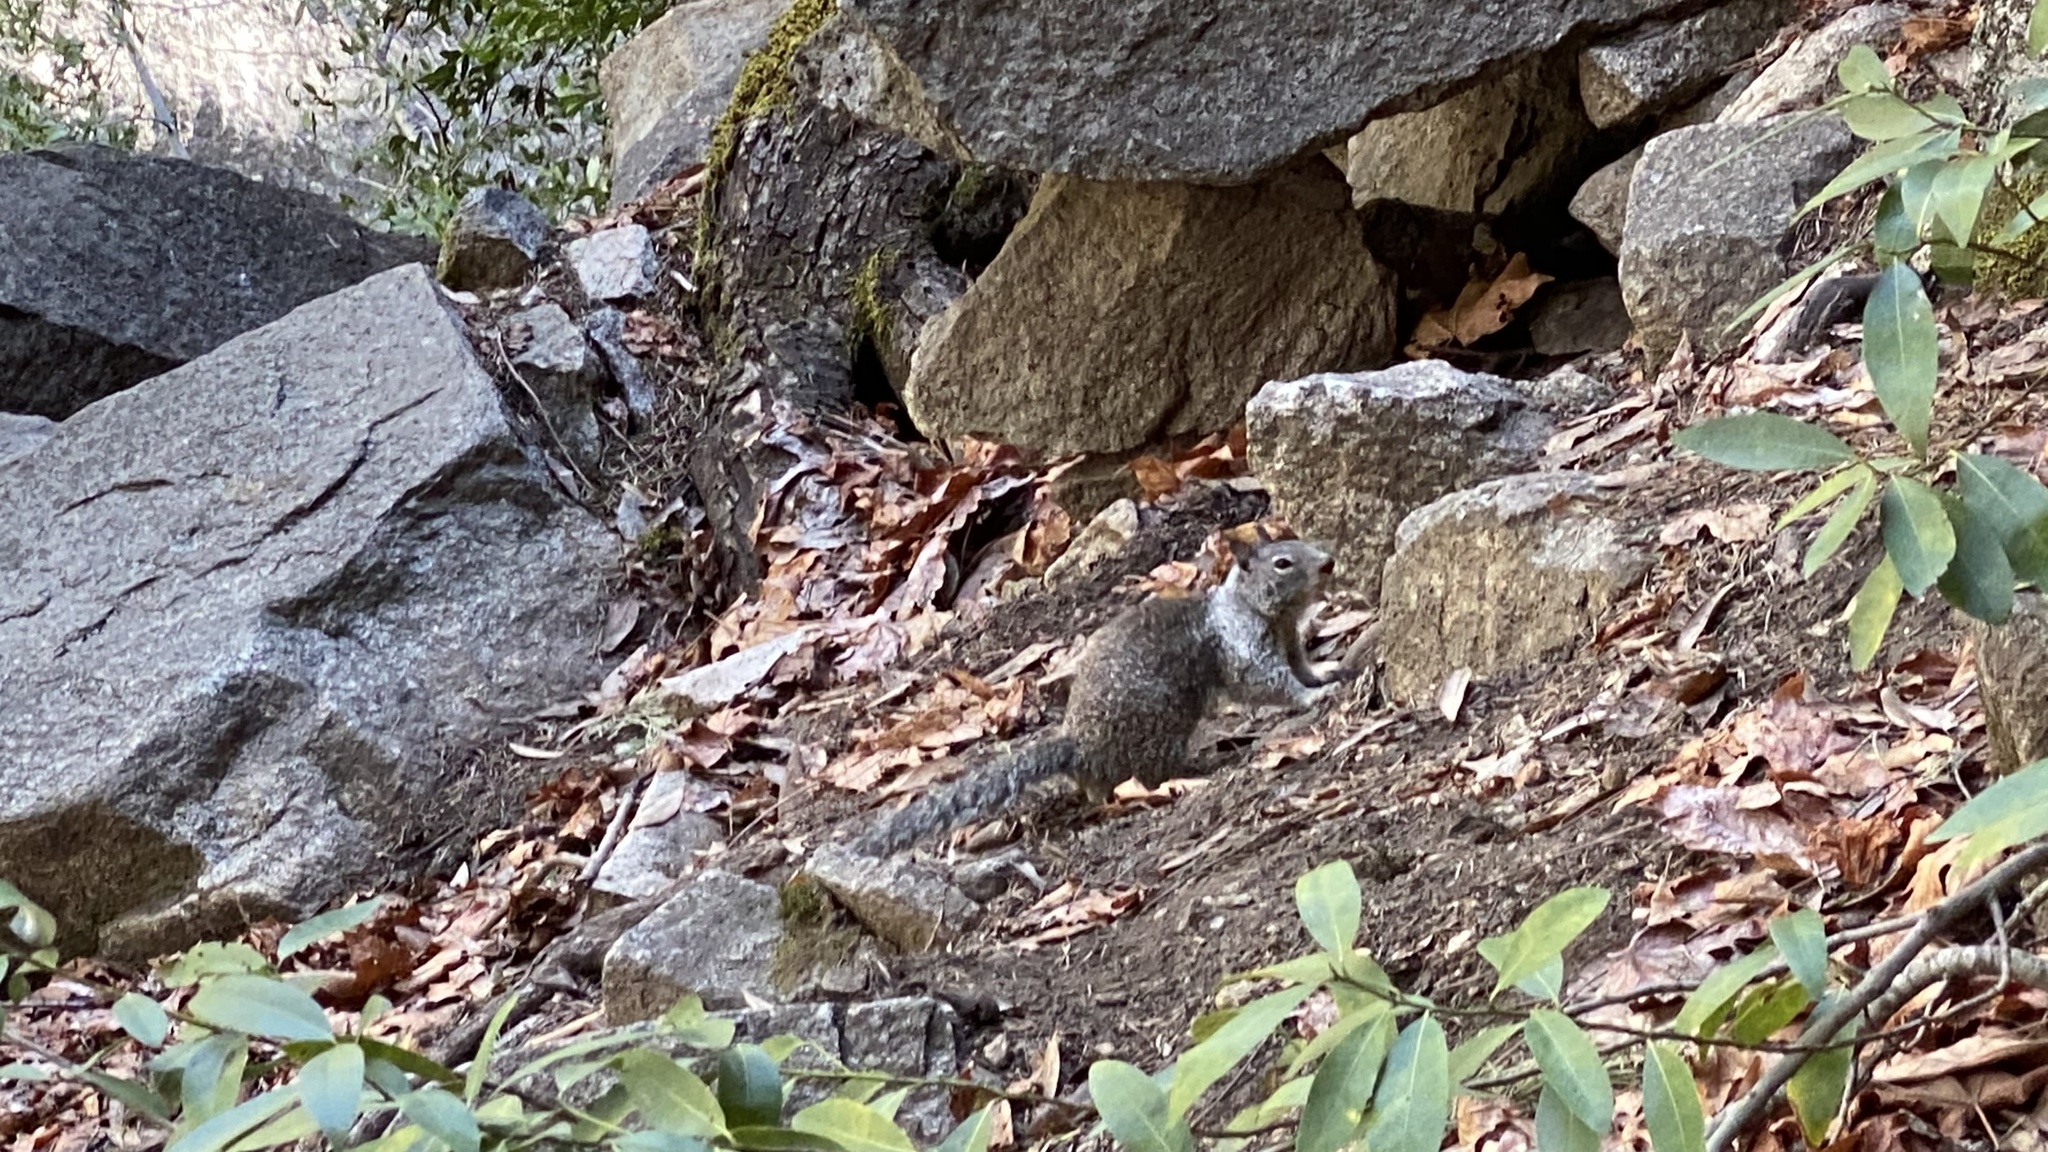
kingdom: Animalia
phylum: Chordata
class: Mammalia
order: Rodentia
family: Sciuridae
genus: Otospermophilus
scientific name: Otospermophilus beecheyi
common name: California ground squirrel
